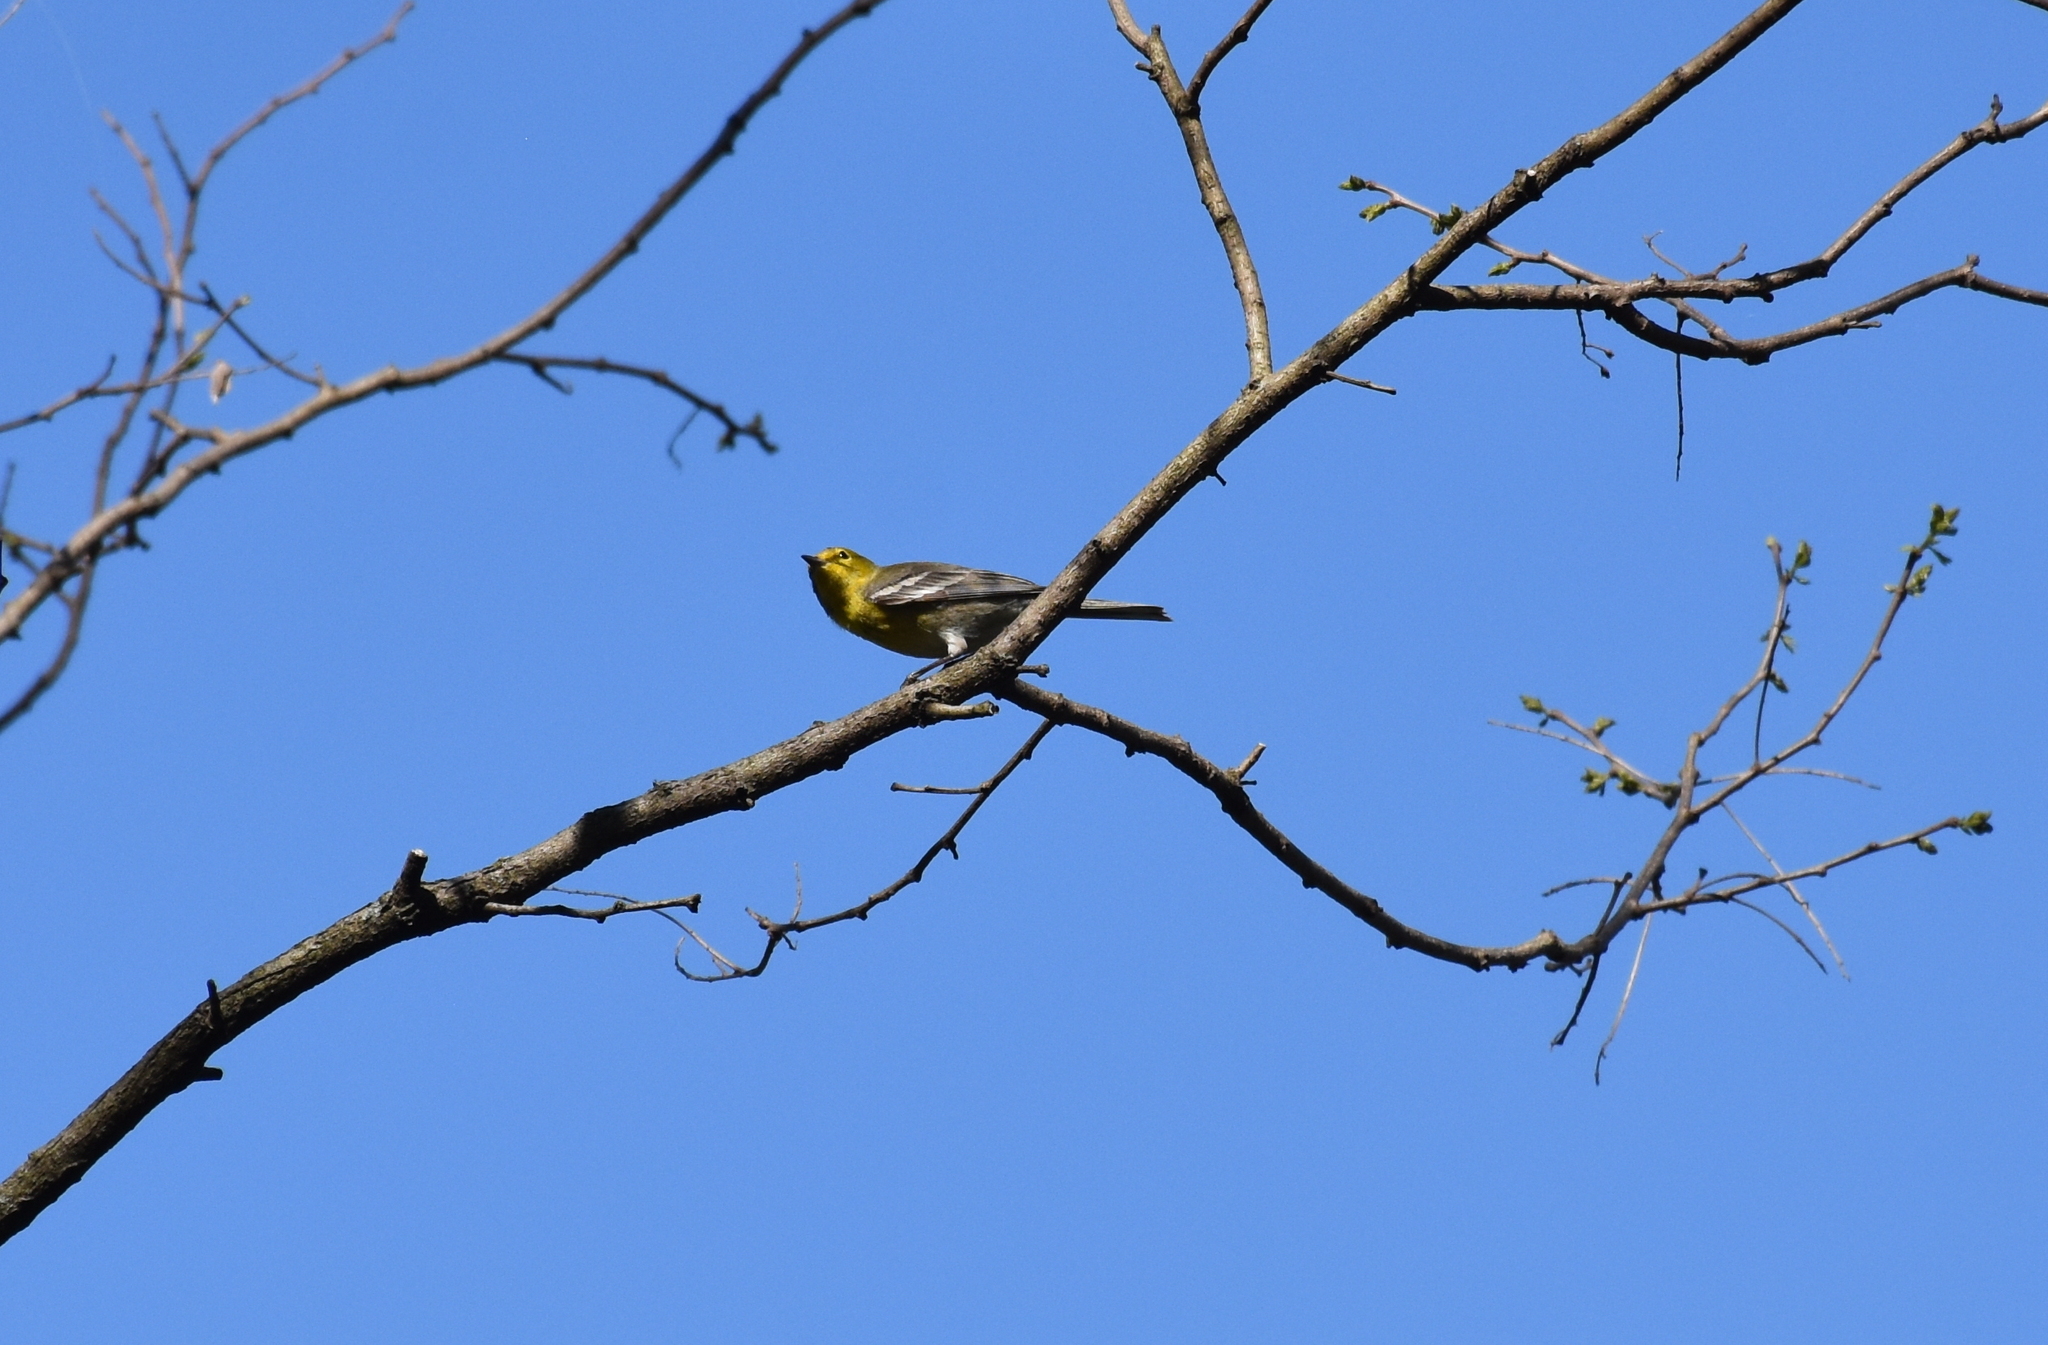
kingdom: Animalia
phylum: Chordata
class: Aves
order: Passeriformes
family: Parulidae
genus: Setophaga
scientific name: Setophaga pinus
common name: Pine warbler
